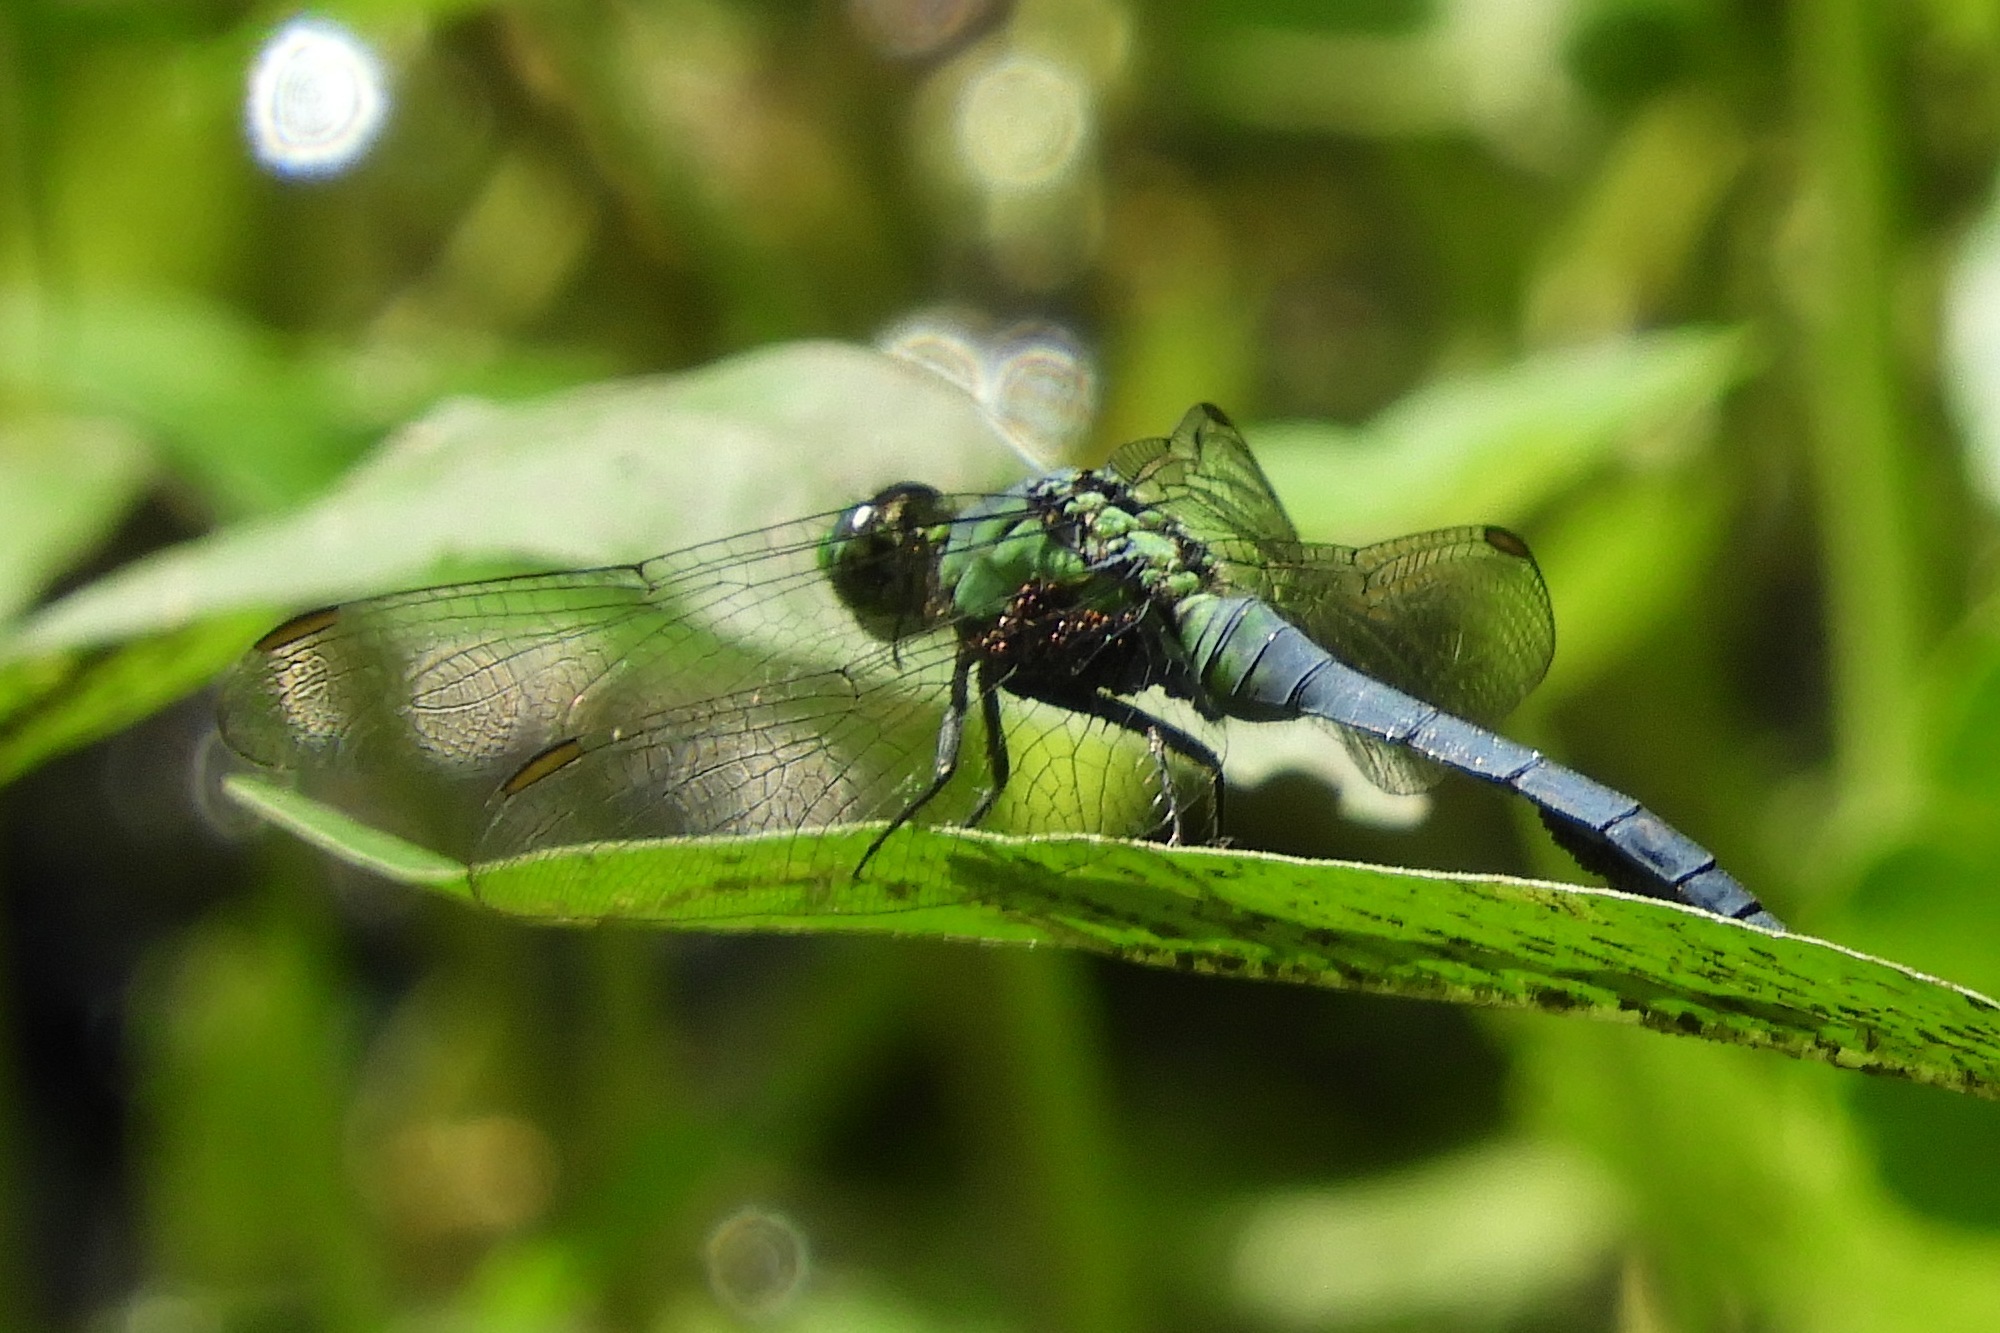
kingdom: Animalia
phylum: Arthropoda
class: Insecta
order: Odonata
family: Libellulidae
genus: Erythemis
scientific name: Erythemis simplicicollis
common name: Eastern pondhawk
